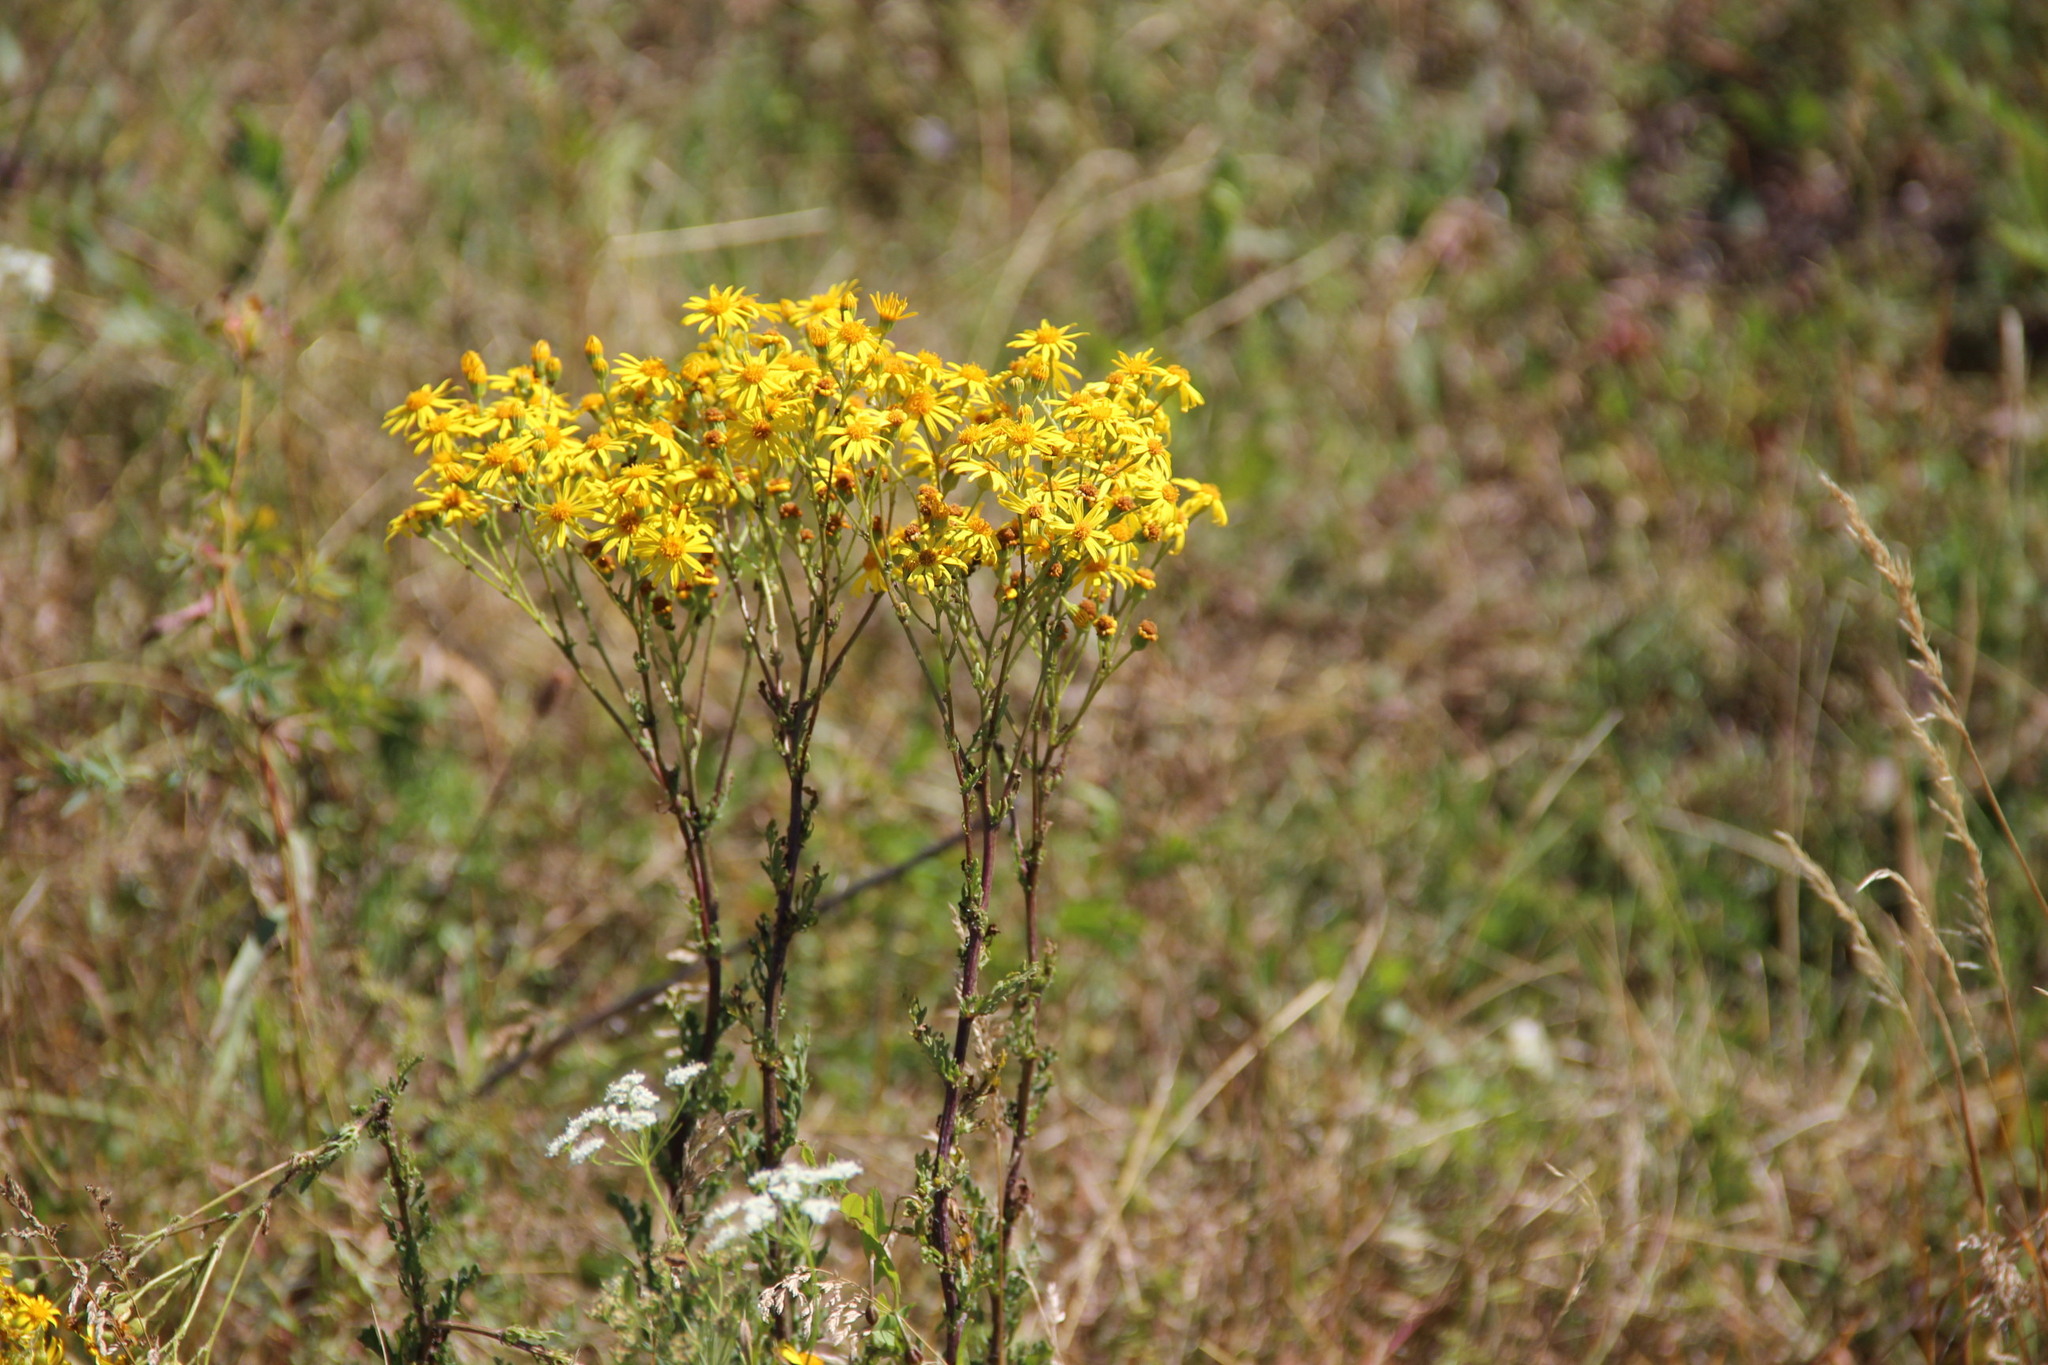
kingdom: Plantae
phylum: Tracheophyta
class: Magnoliopsida
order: Asterales
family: Asteraceae
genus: Jacobaea
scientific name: Jacobaea vulgaris
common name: Stinking willie
